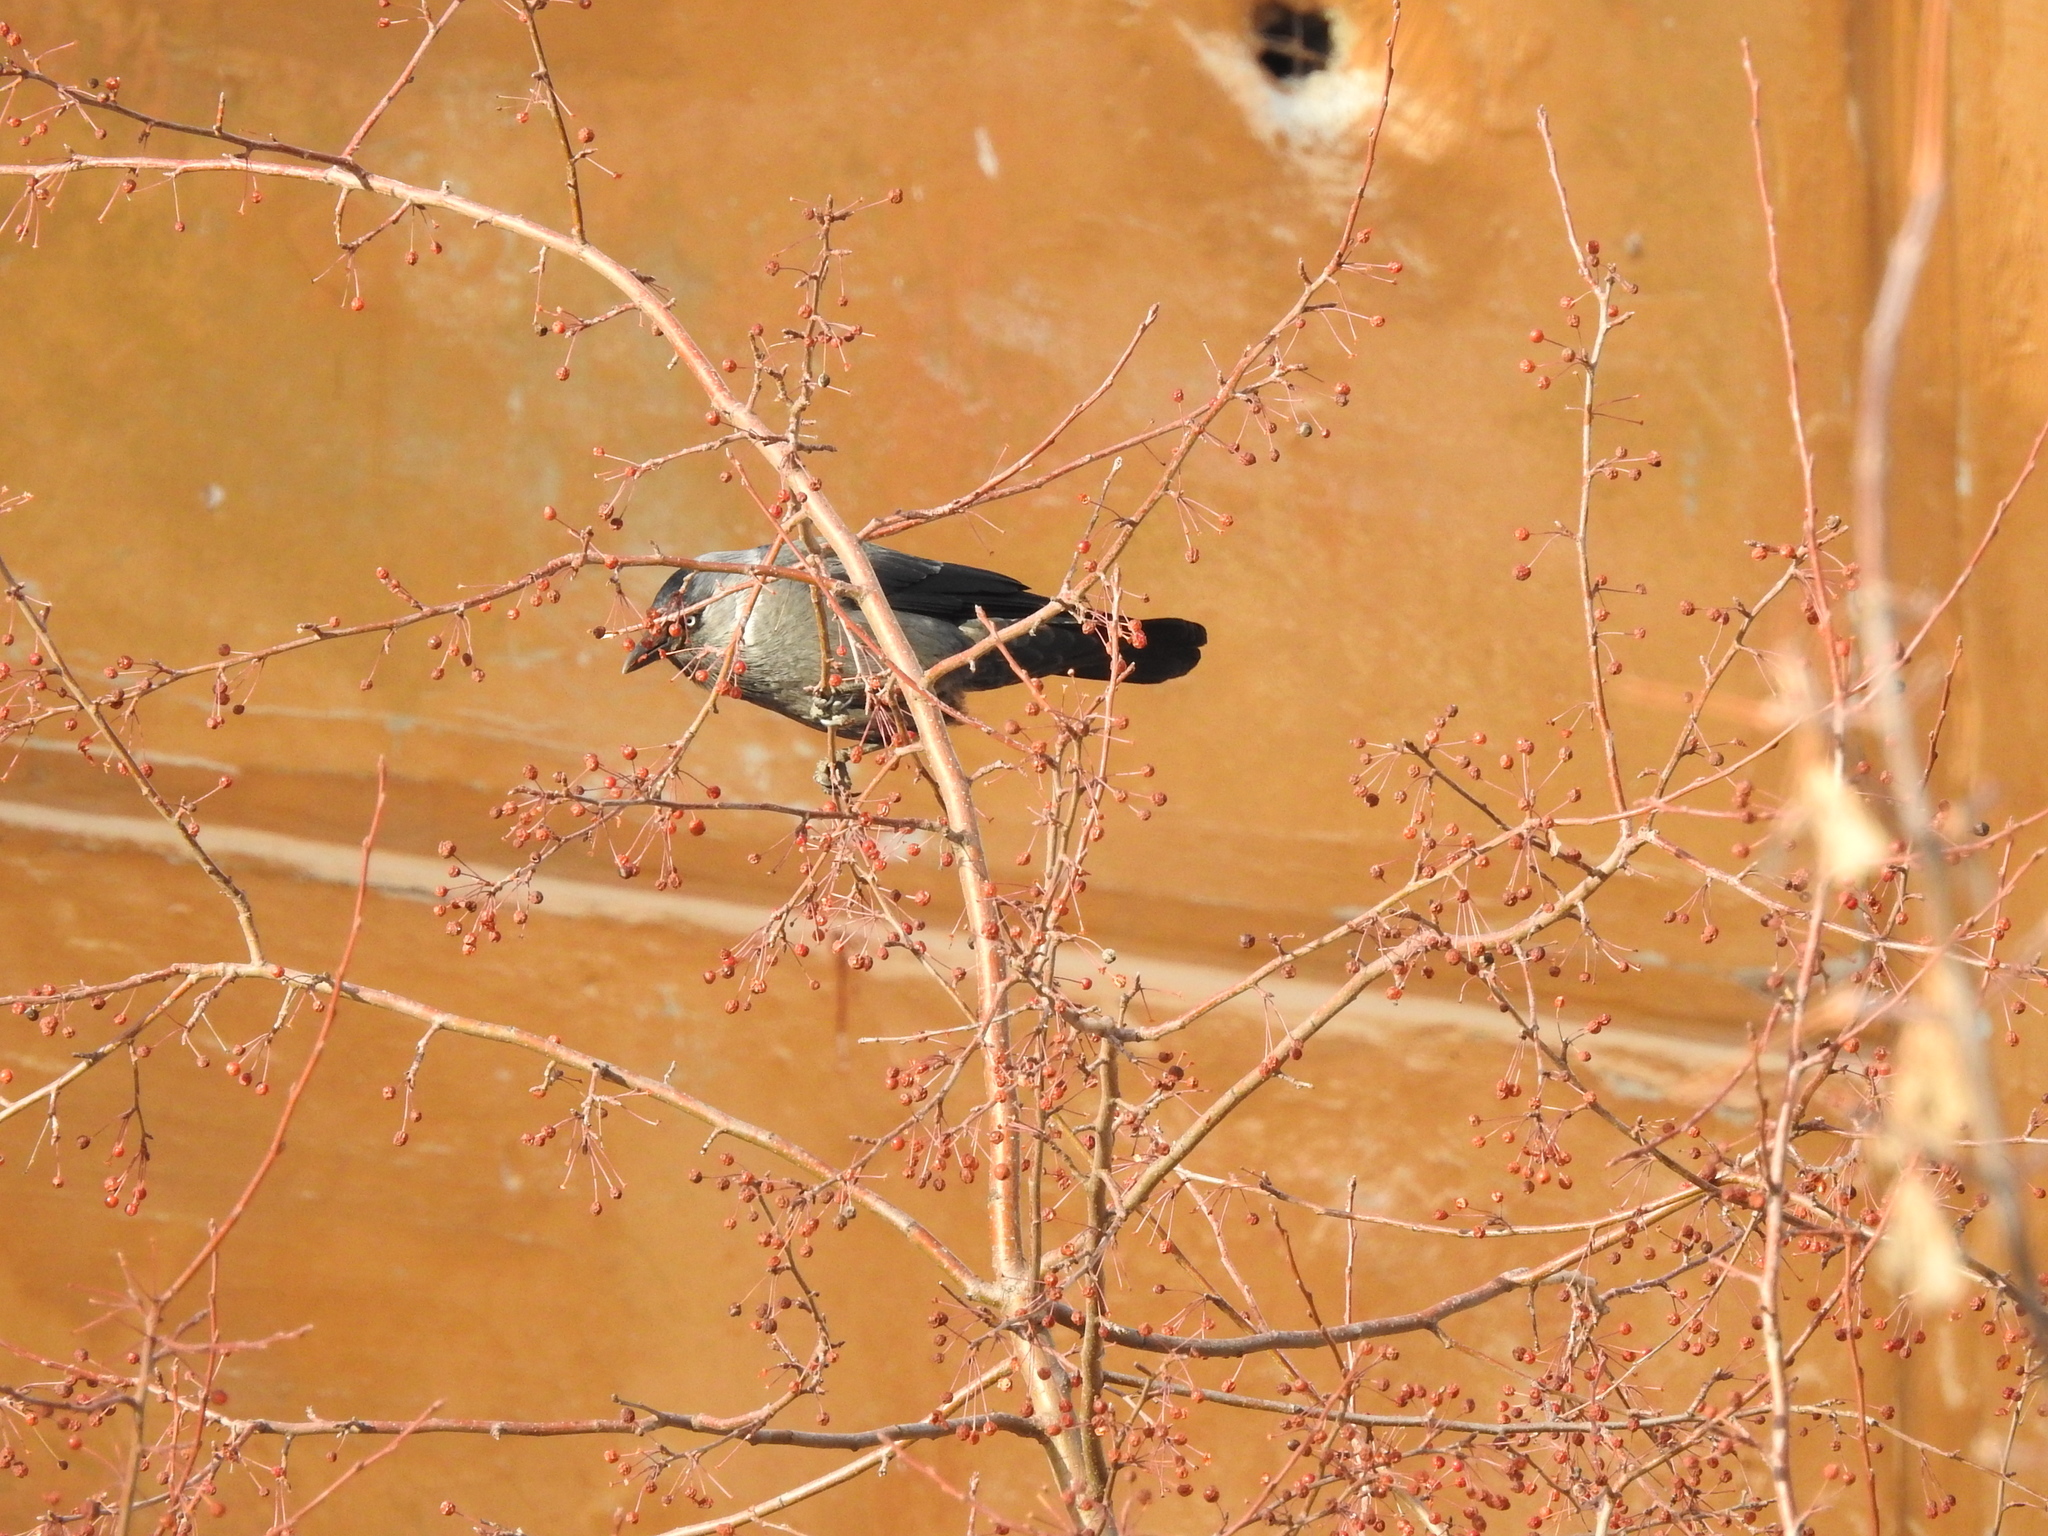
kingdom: Animalia
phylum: Chordata
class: Aves
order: Passeriformes
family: Corvidae
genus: Coloeus
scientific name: Coloeus monedula
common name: Western jackdaw
